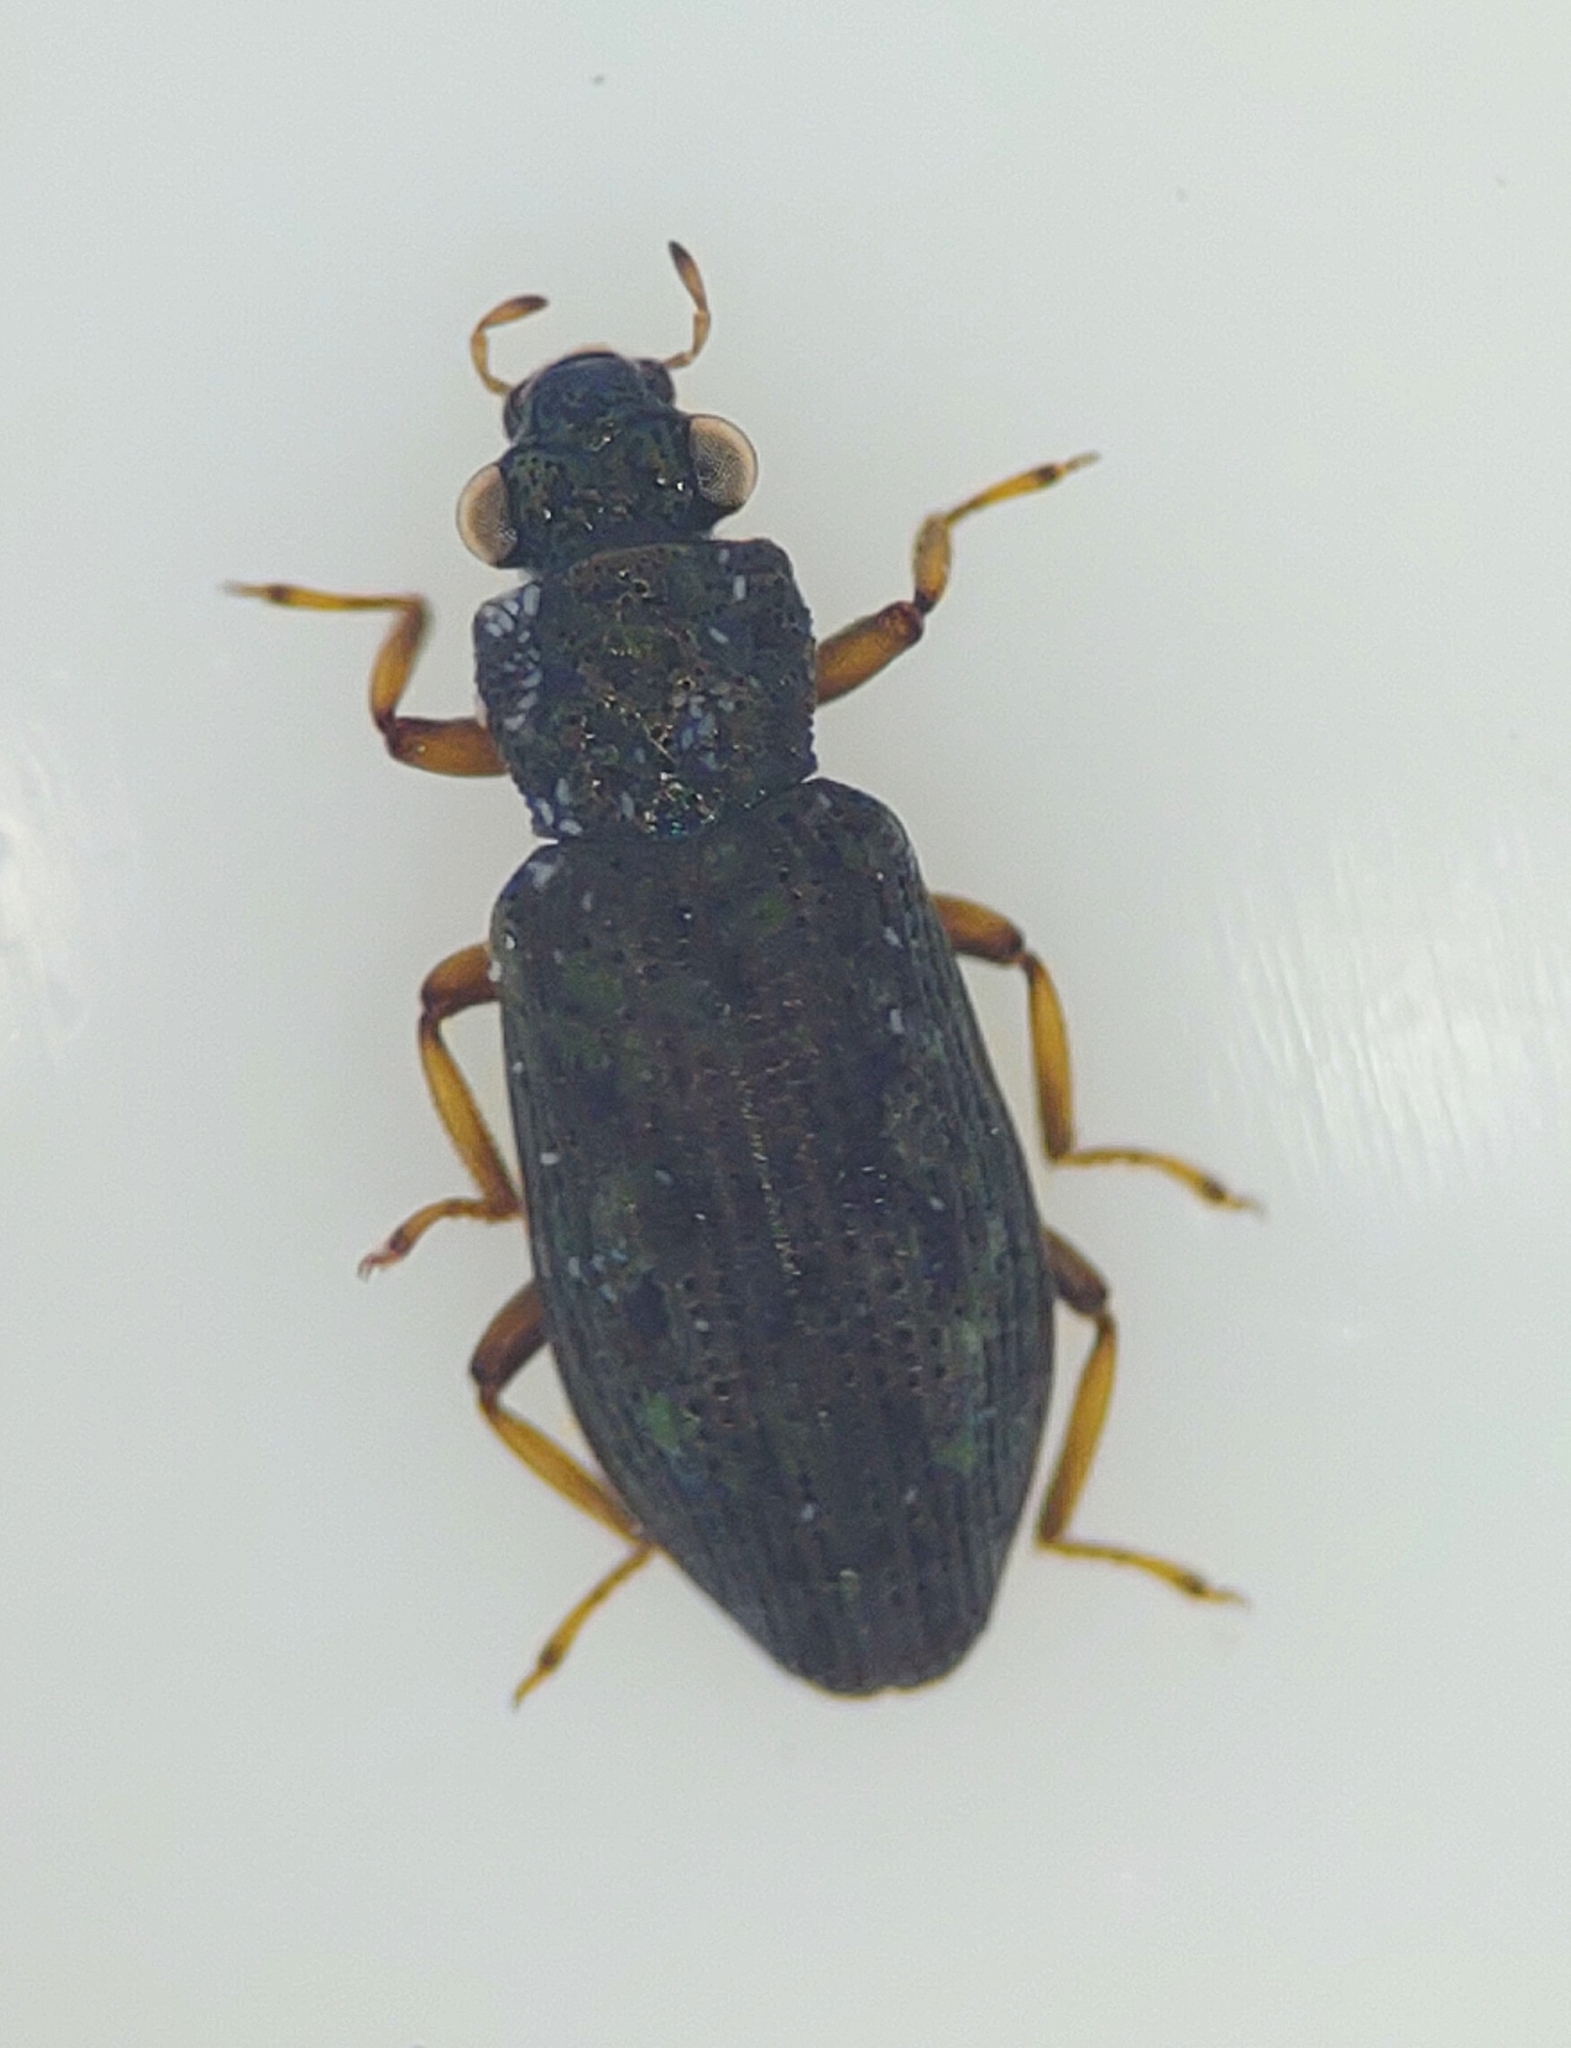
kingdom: Animalia
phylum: Arthropoda
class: Insecta
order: Coleoptera
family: Hydrochidae
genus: Hydrochus
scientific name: Hydrochus
